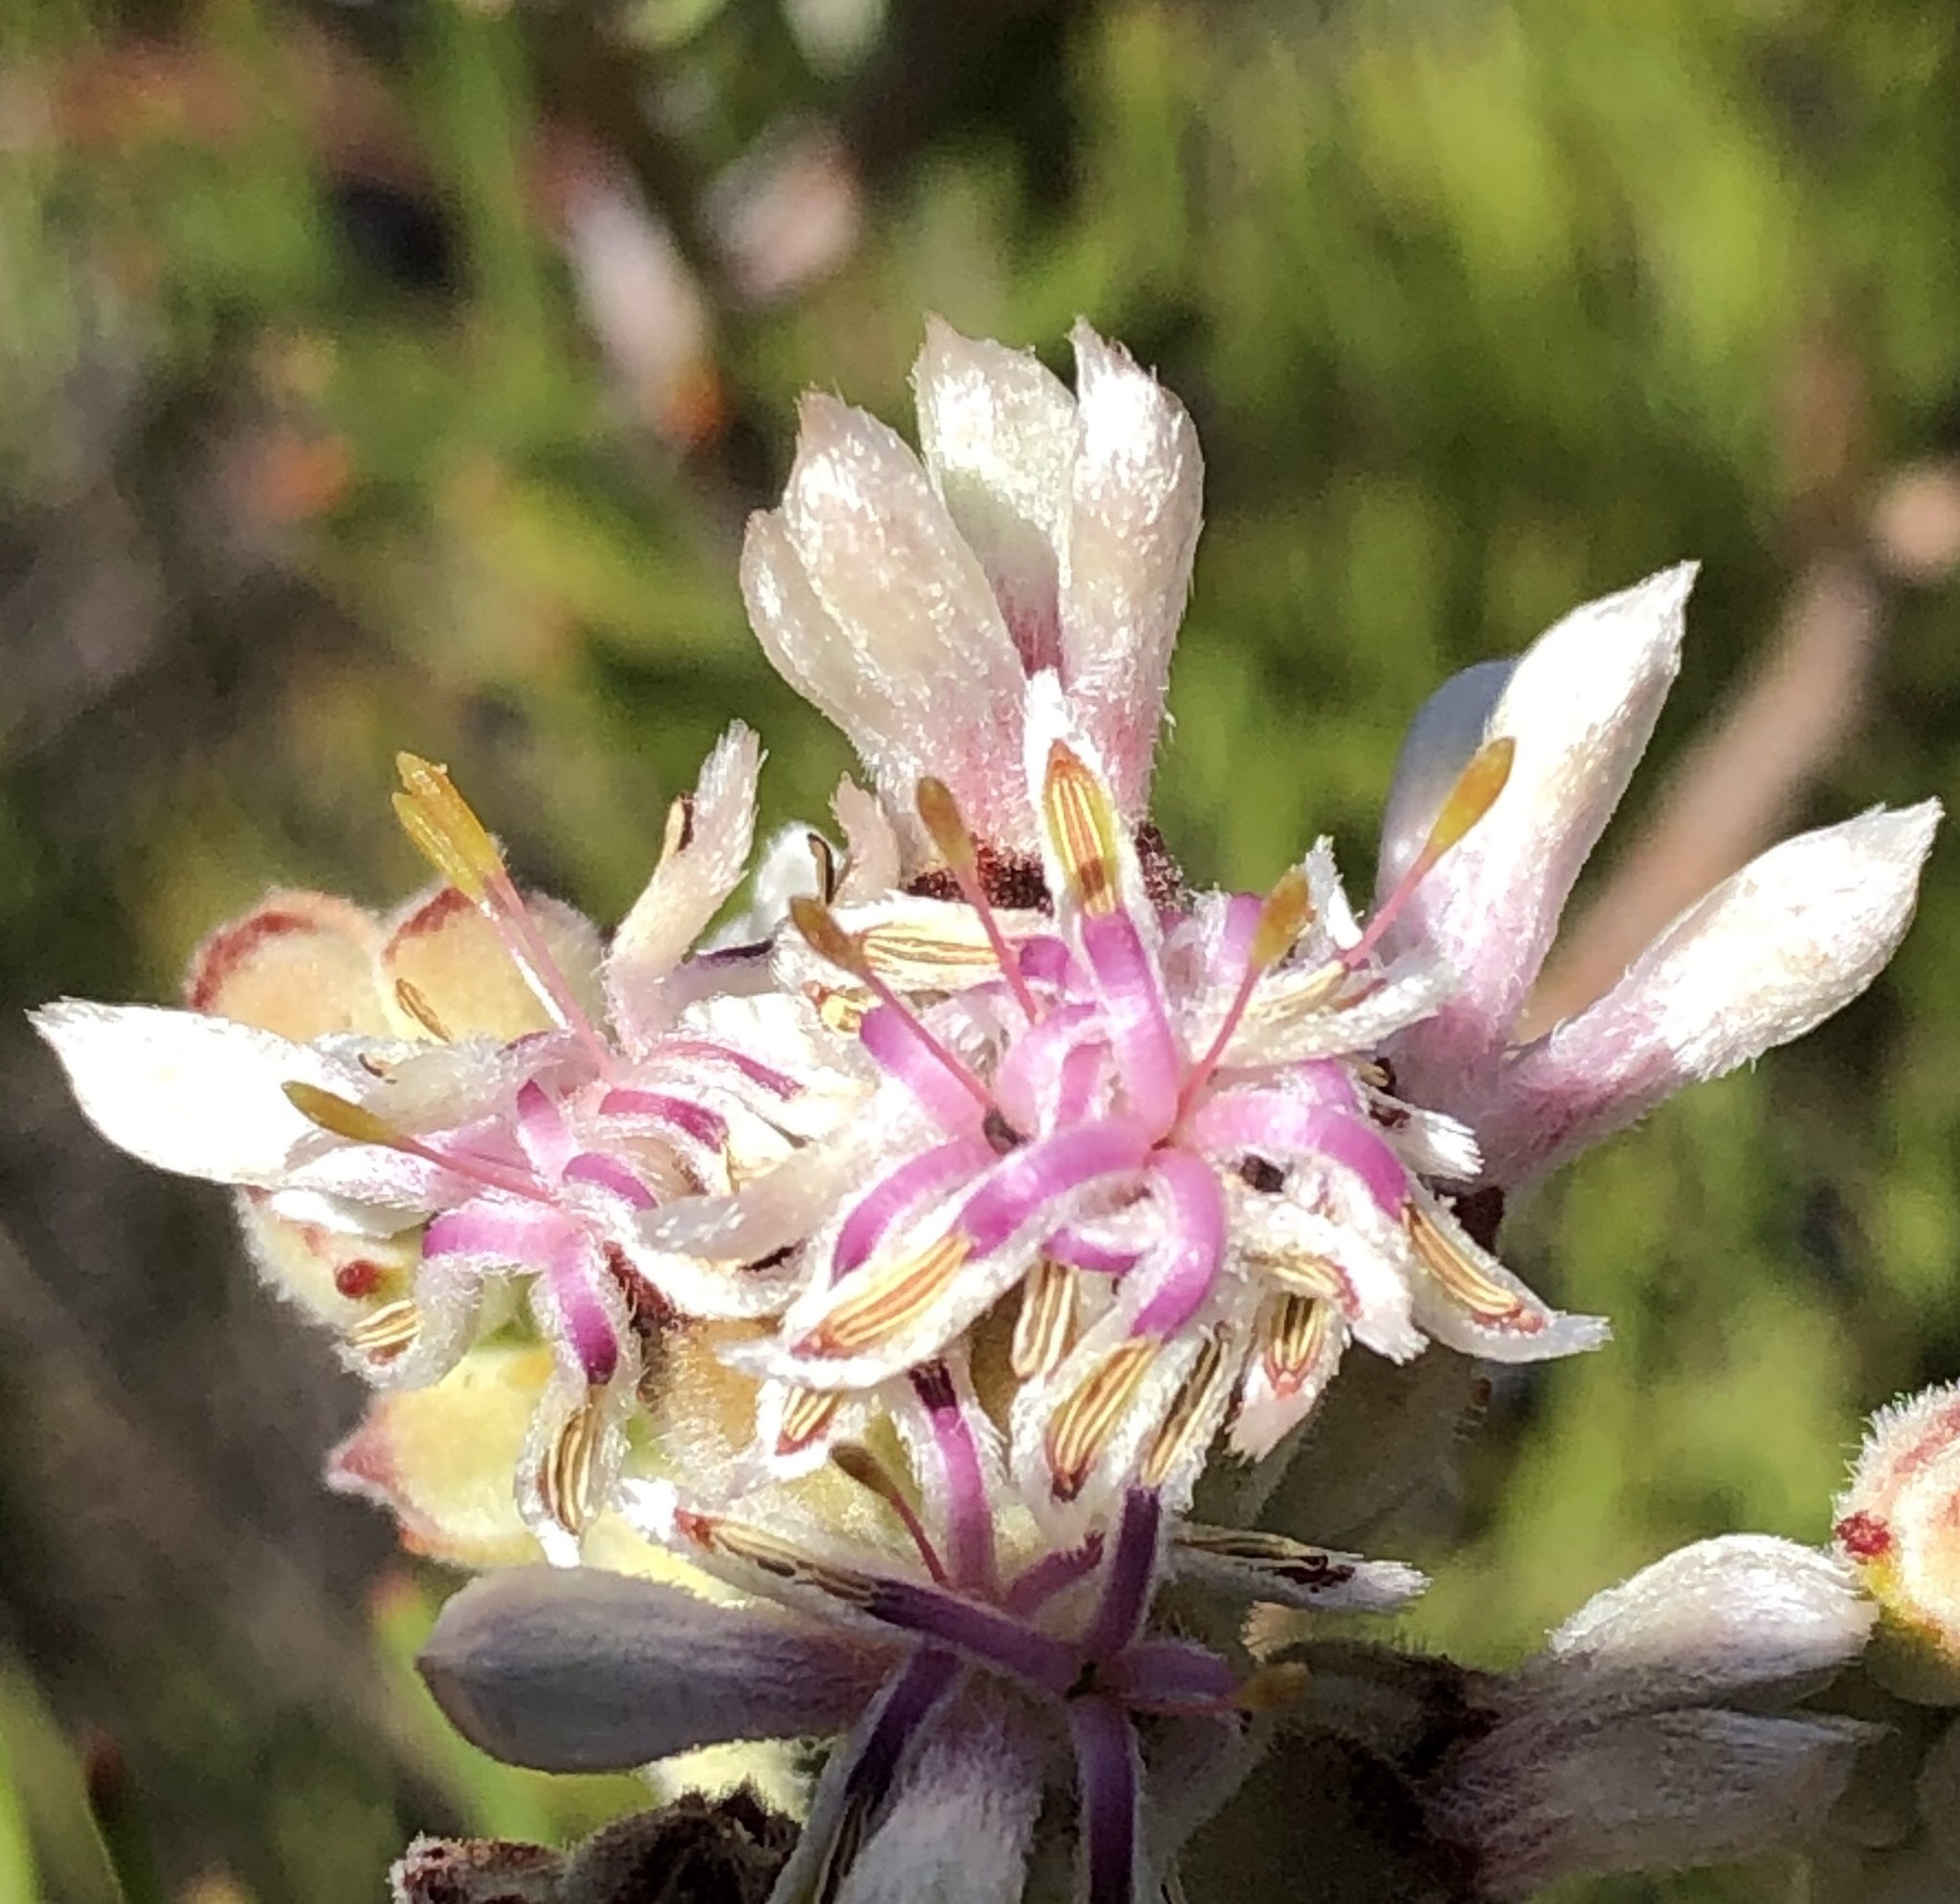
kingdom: Plantae
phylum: Tracheophyta
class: Magnoliopsida
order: Proteales
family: Proteaceae
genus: Paranomus
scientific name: Paranomus dregei
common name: Scented sceptre
